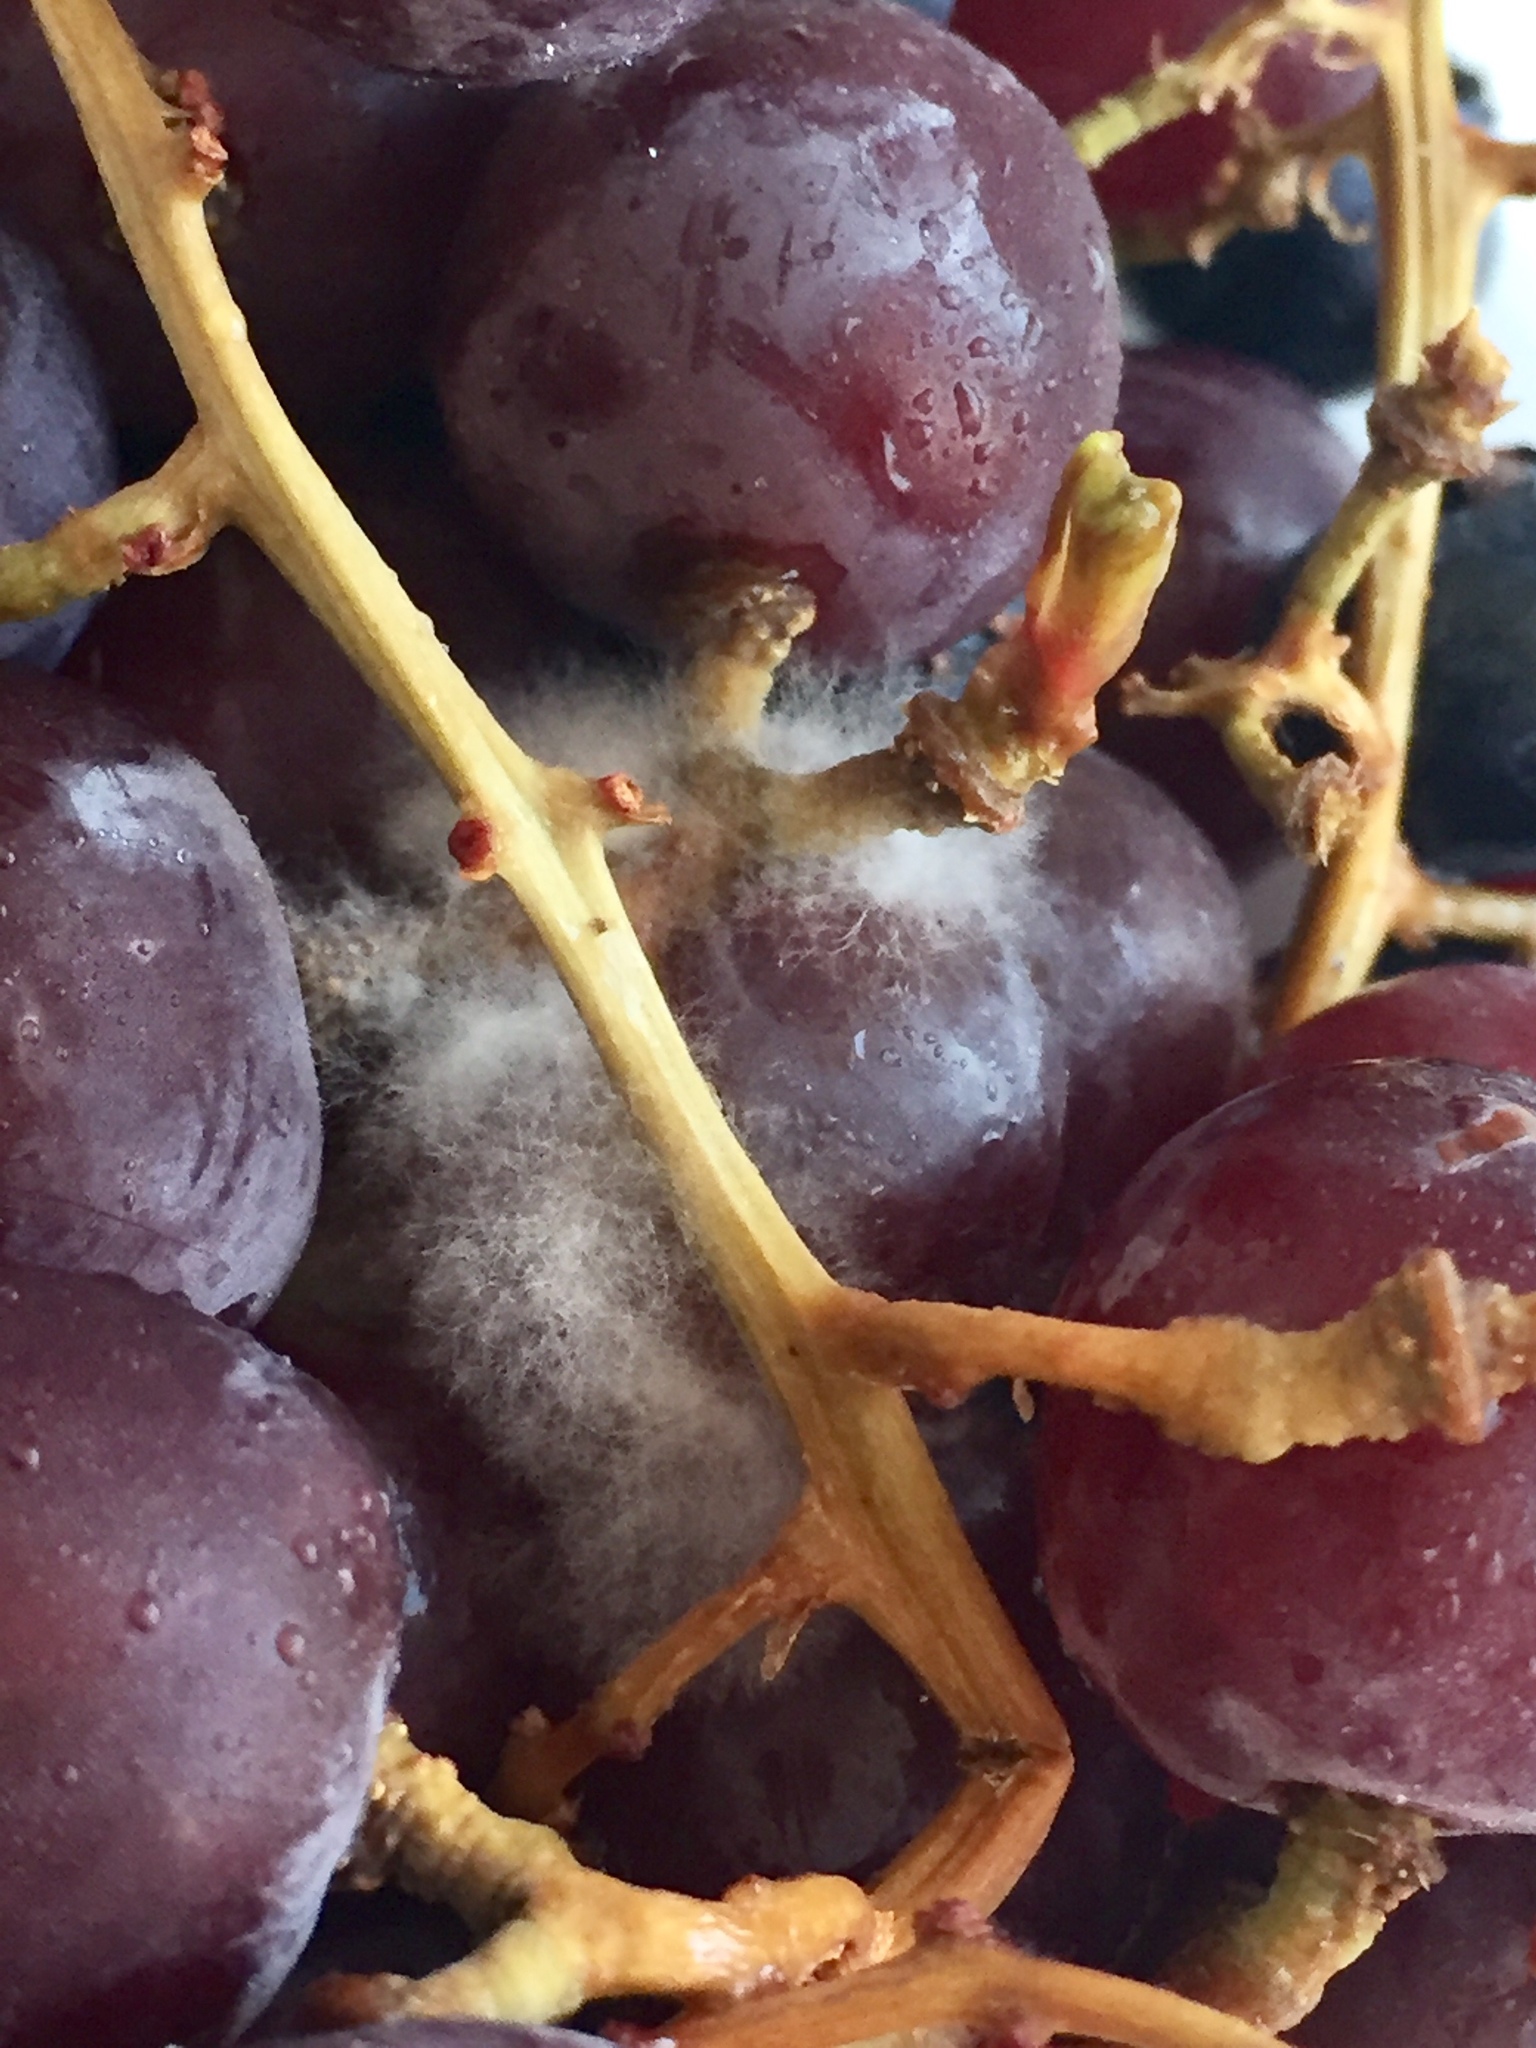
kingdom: Fungi
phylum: Ascomycota
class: Leotiomycetes
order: Helotiales
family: Sclerotiniaceae
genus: Botrytis
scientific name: Botrytis cinerea
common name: Grey mould
